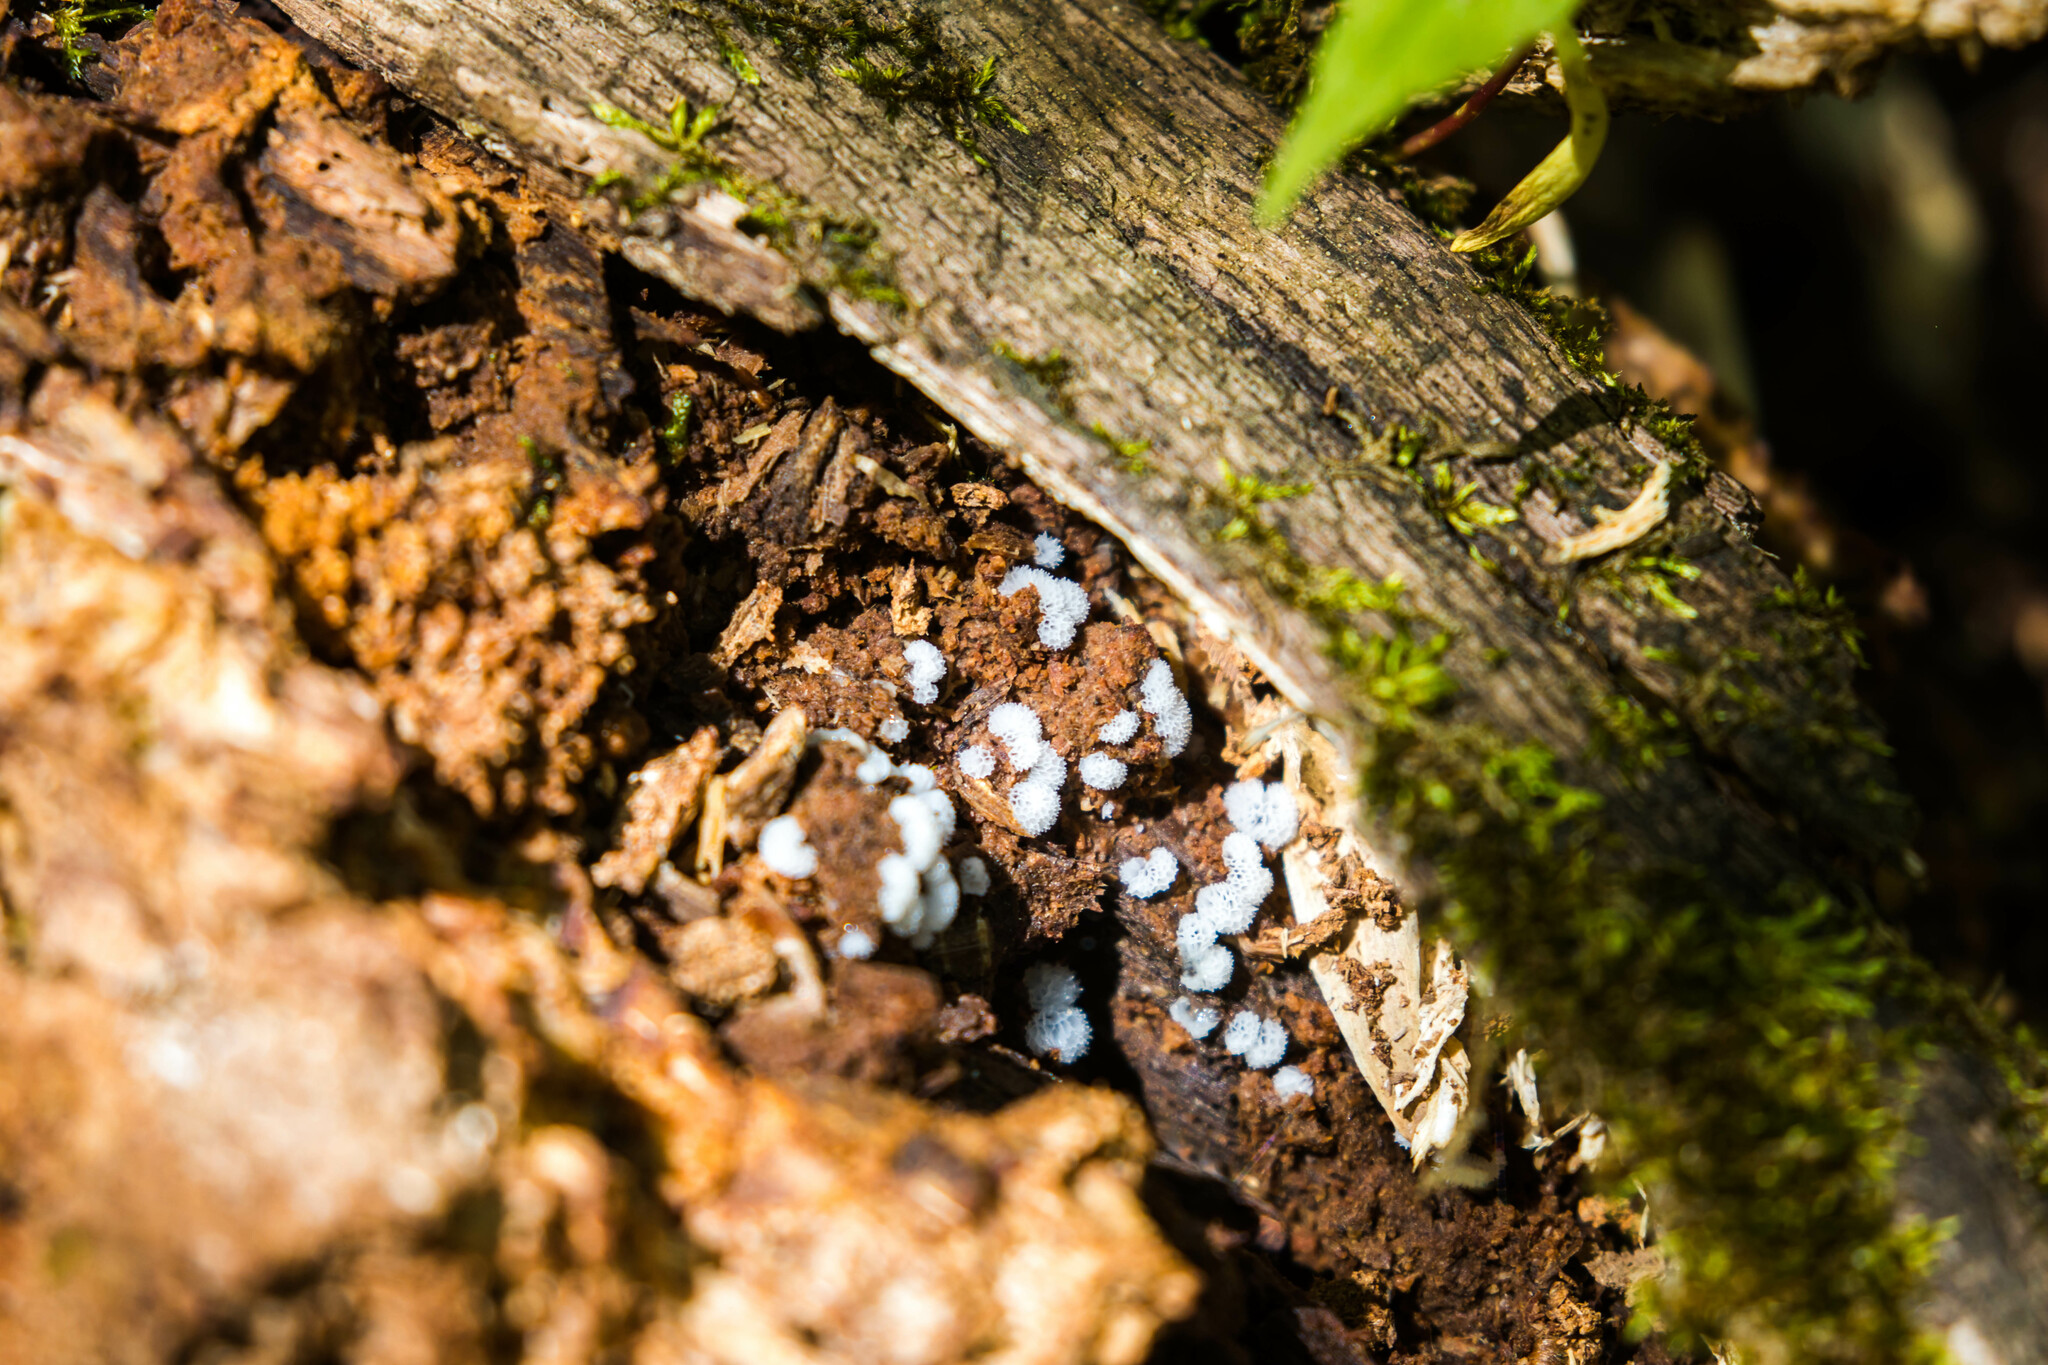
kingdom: Protozoa
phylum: Mycetozoa
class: Protosteliomycetes
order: Ceratiomyxales
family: Ceratiomyxaceae
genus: Ceratiomyxa
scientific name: Ceratiomyxa fruticulosa
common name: Honeycomb coral slime mold
